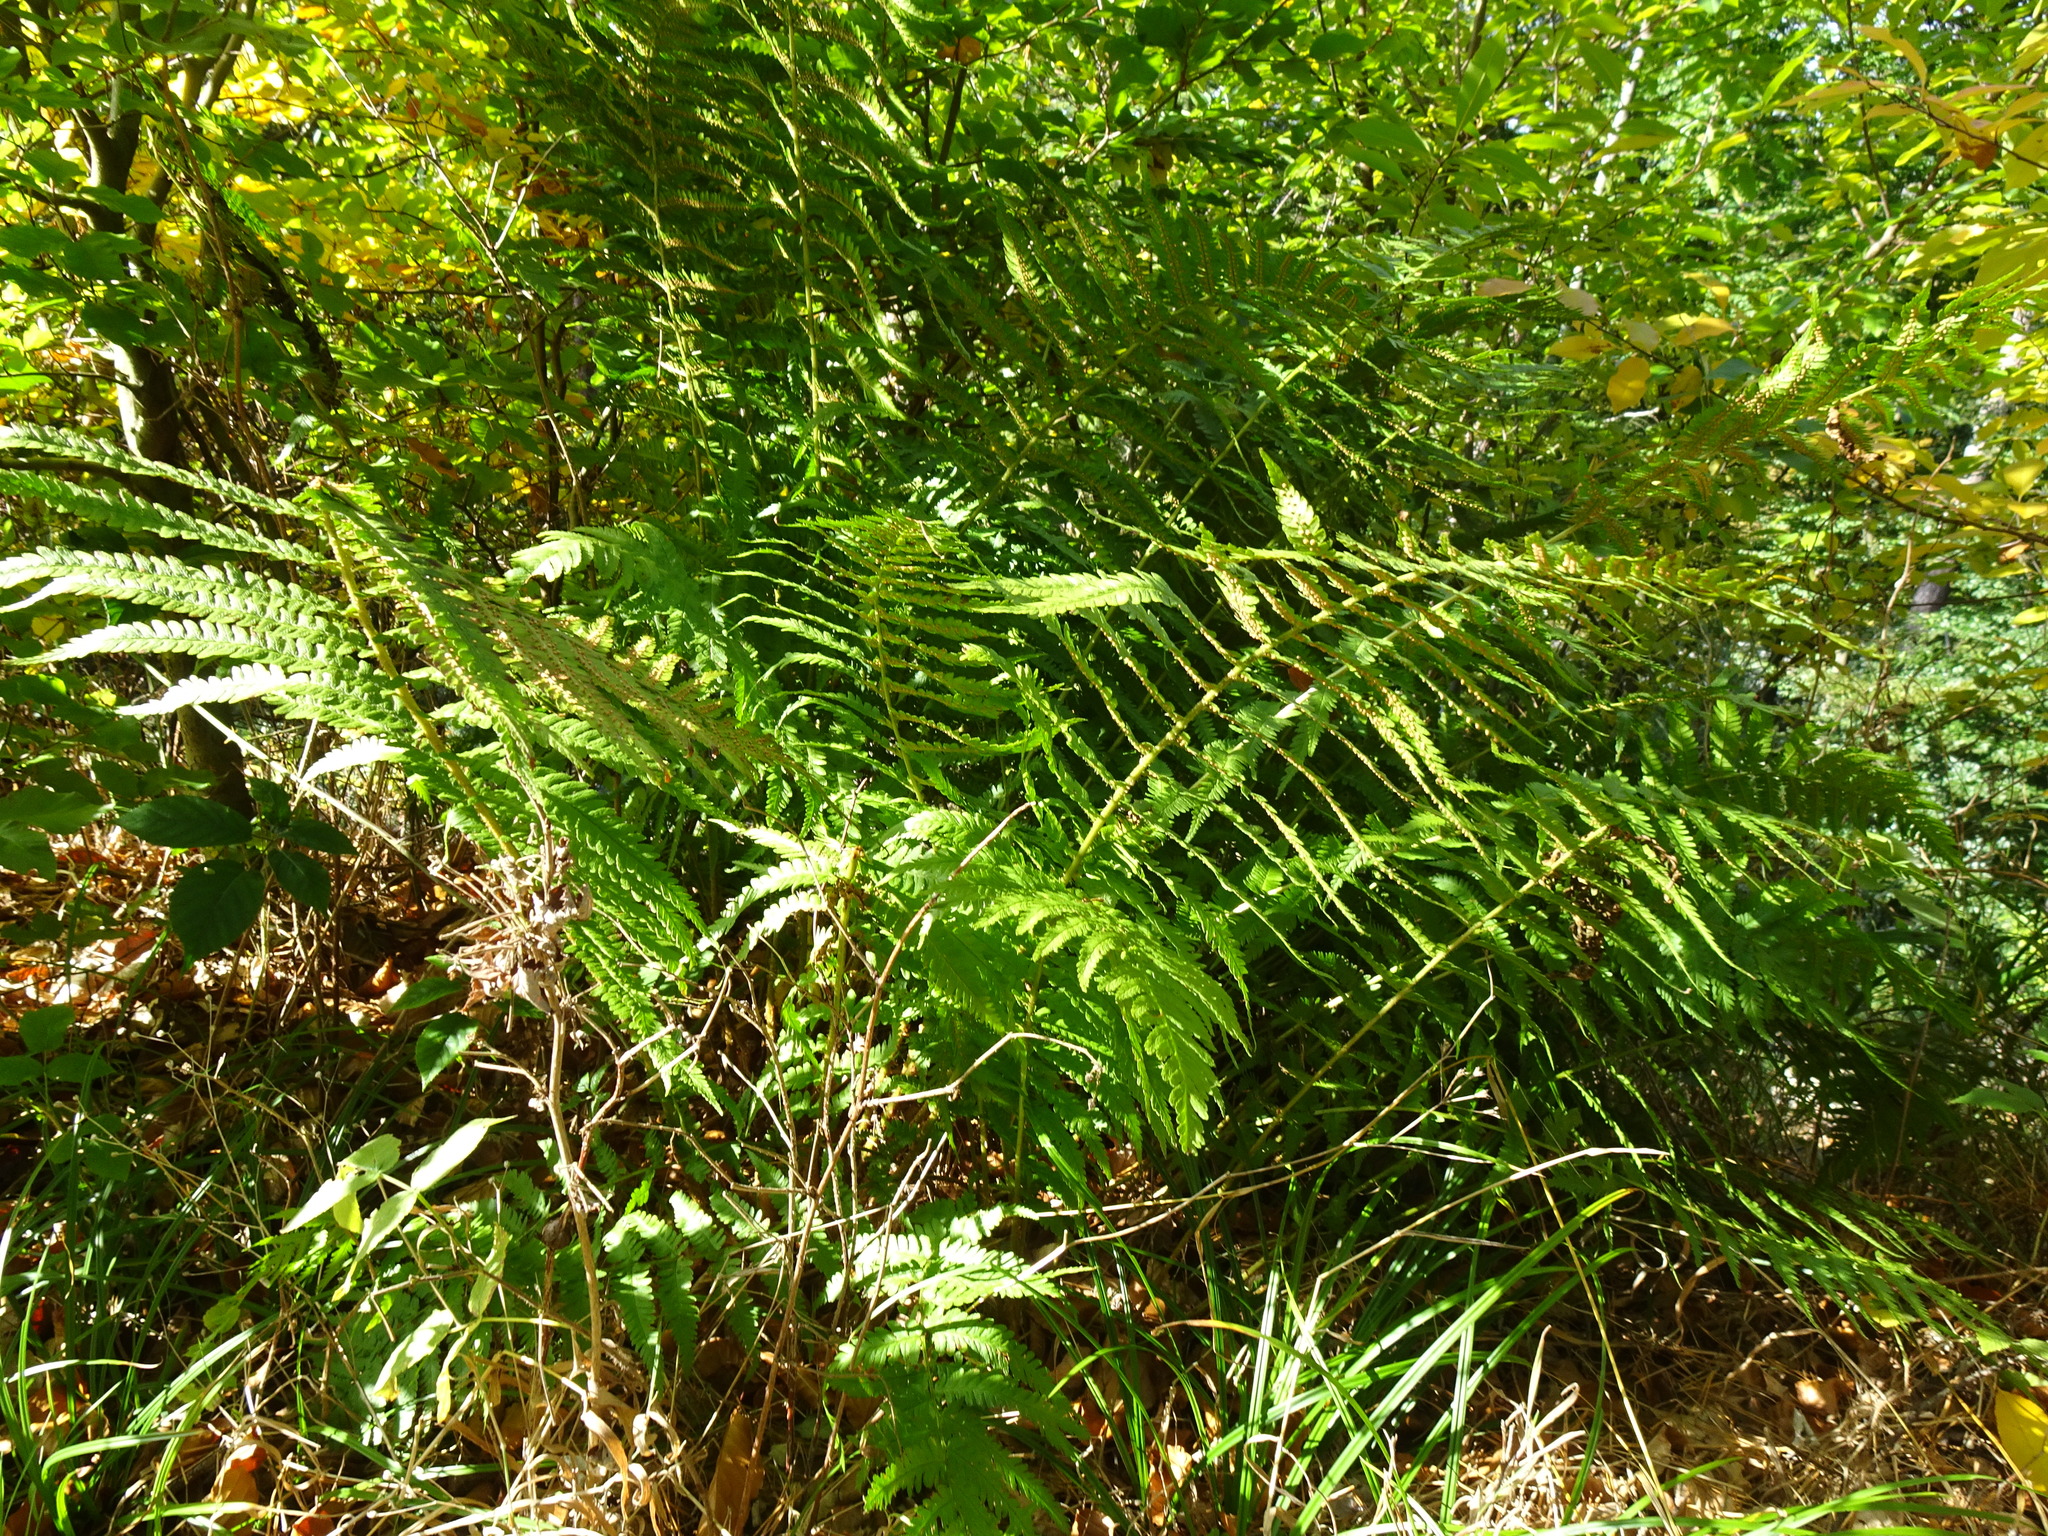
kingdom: Plantae
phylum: Tracheophyta
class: Polypodiopsida
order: Polypodiales
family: Dryopteridaceae
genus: Dryopteris
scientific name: Dryopteris filix-mas
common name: Male fern
